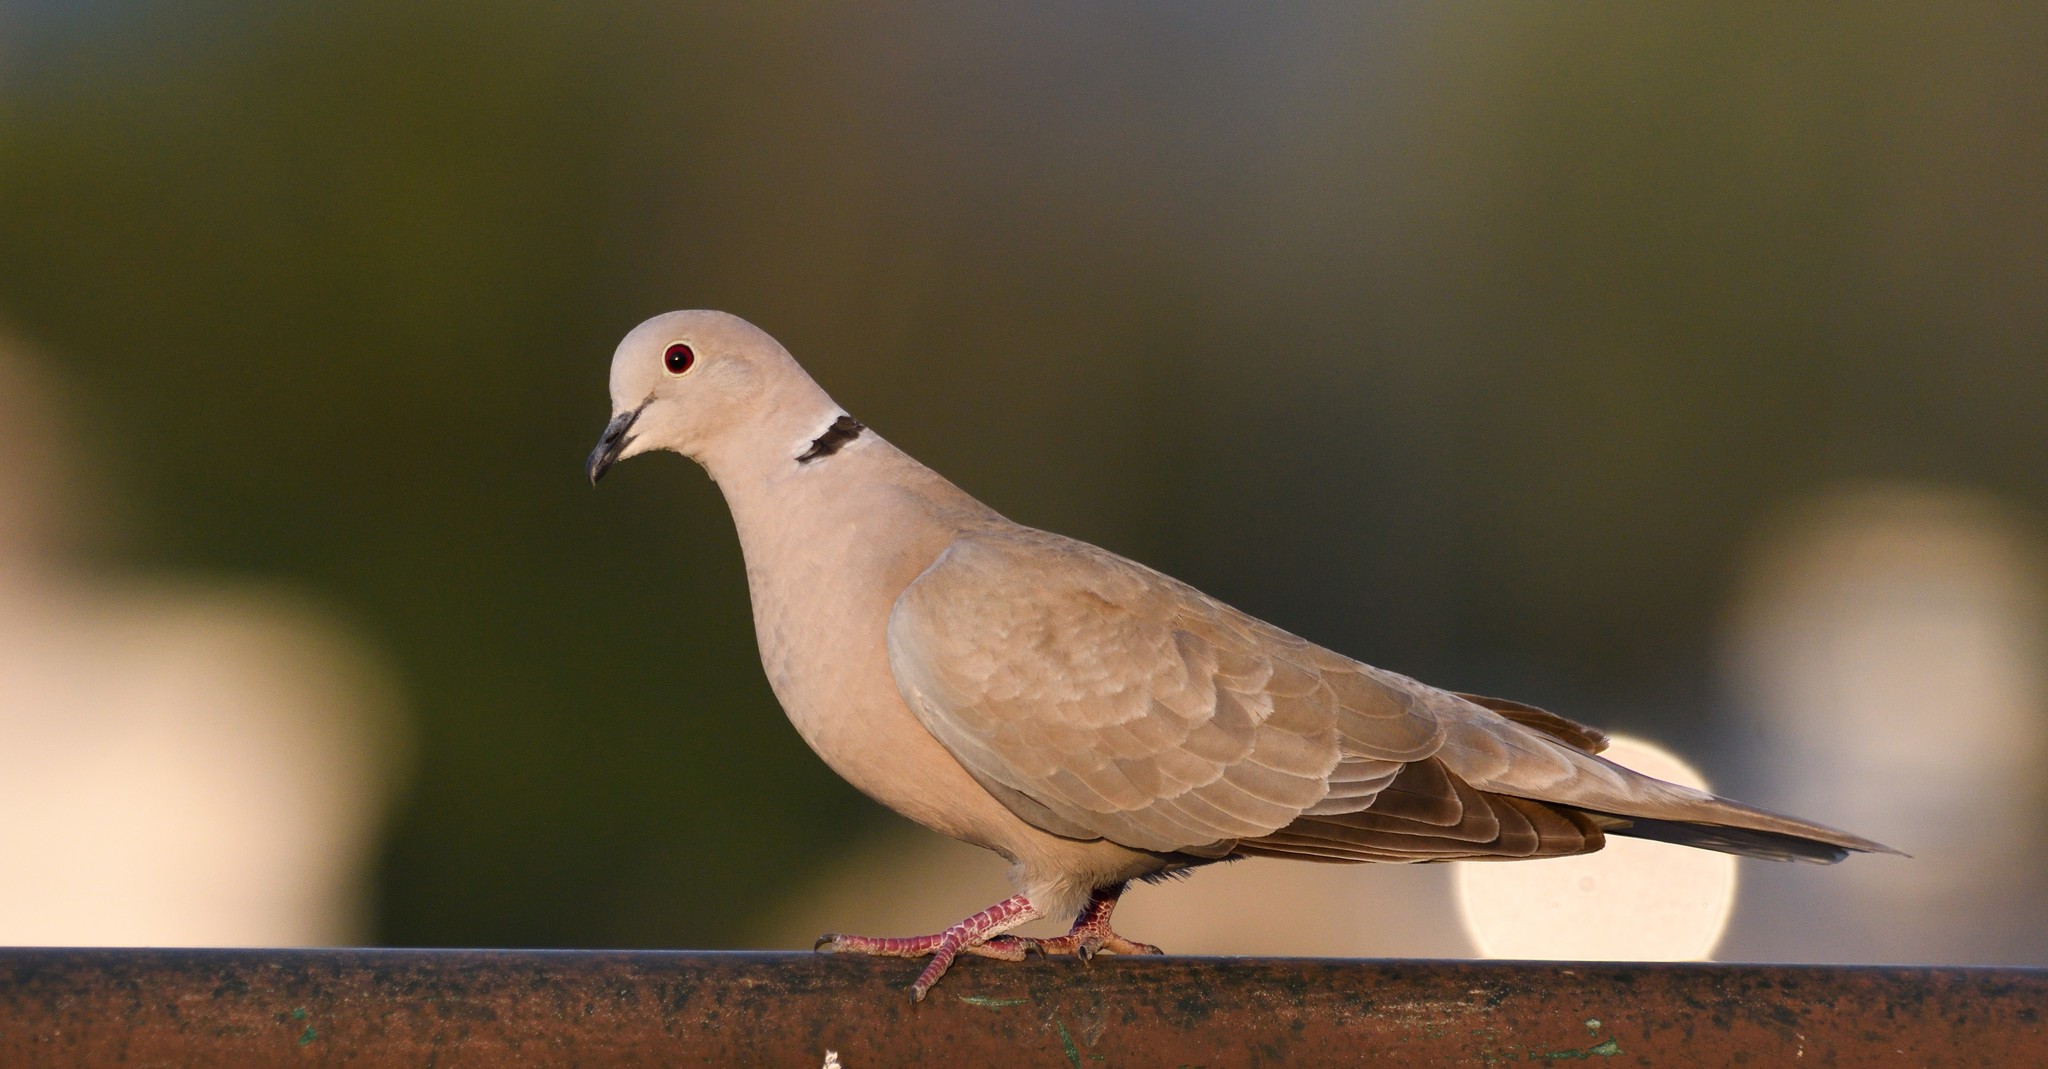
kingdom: Animalia
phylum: Chordata
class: Aves
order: Columbiformes
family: Columbidae
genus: Streptopelia
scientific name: Streptopelia decaocto
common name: Eurasian collared dove
